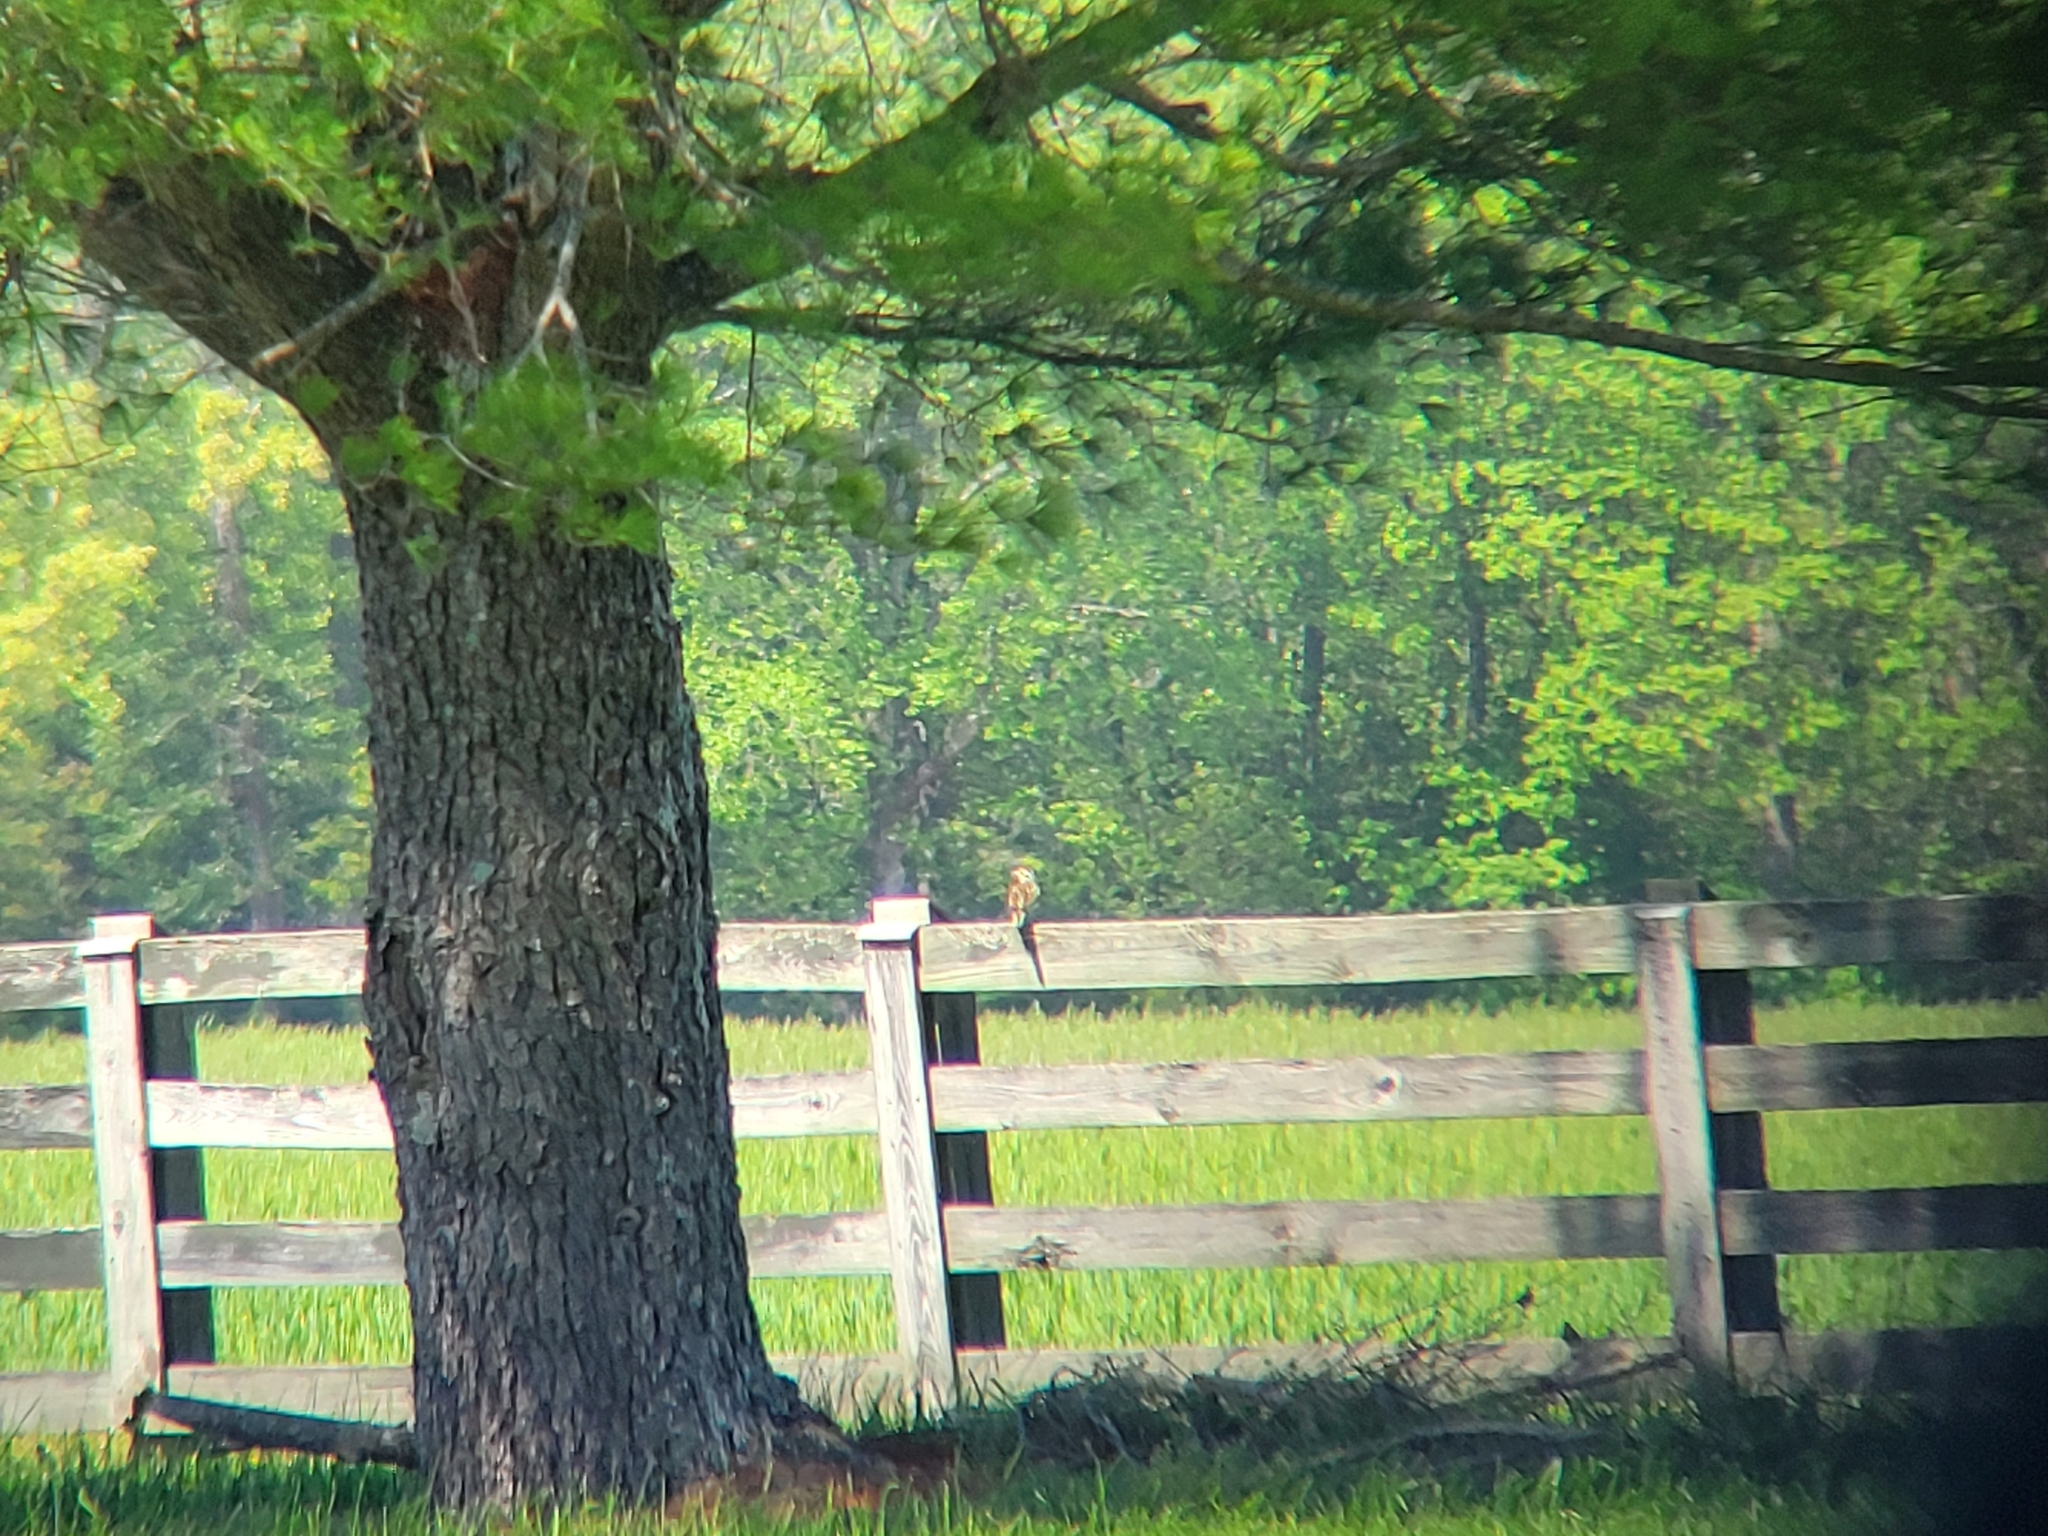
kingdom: Animalia
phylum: Chordata
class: Aves
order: Passeriformes
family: Icteridae
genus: Sturnella
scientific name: Sturnella magna
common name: Eastern meadowlark
